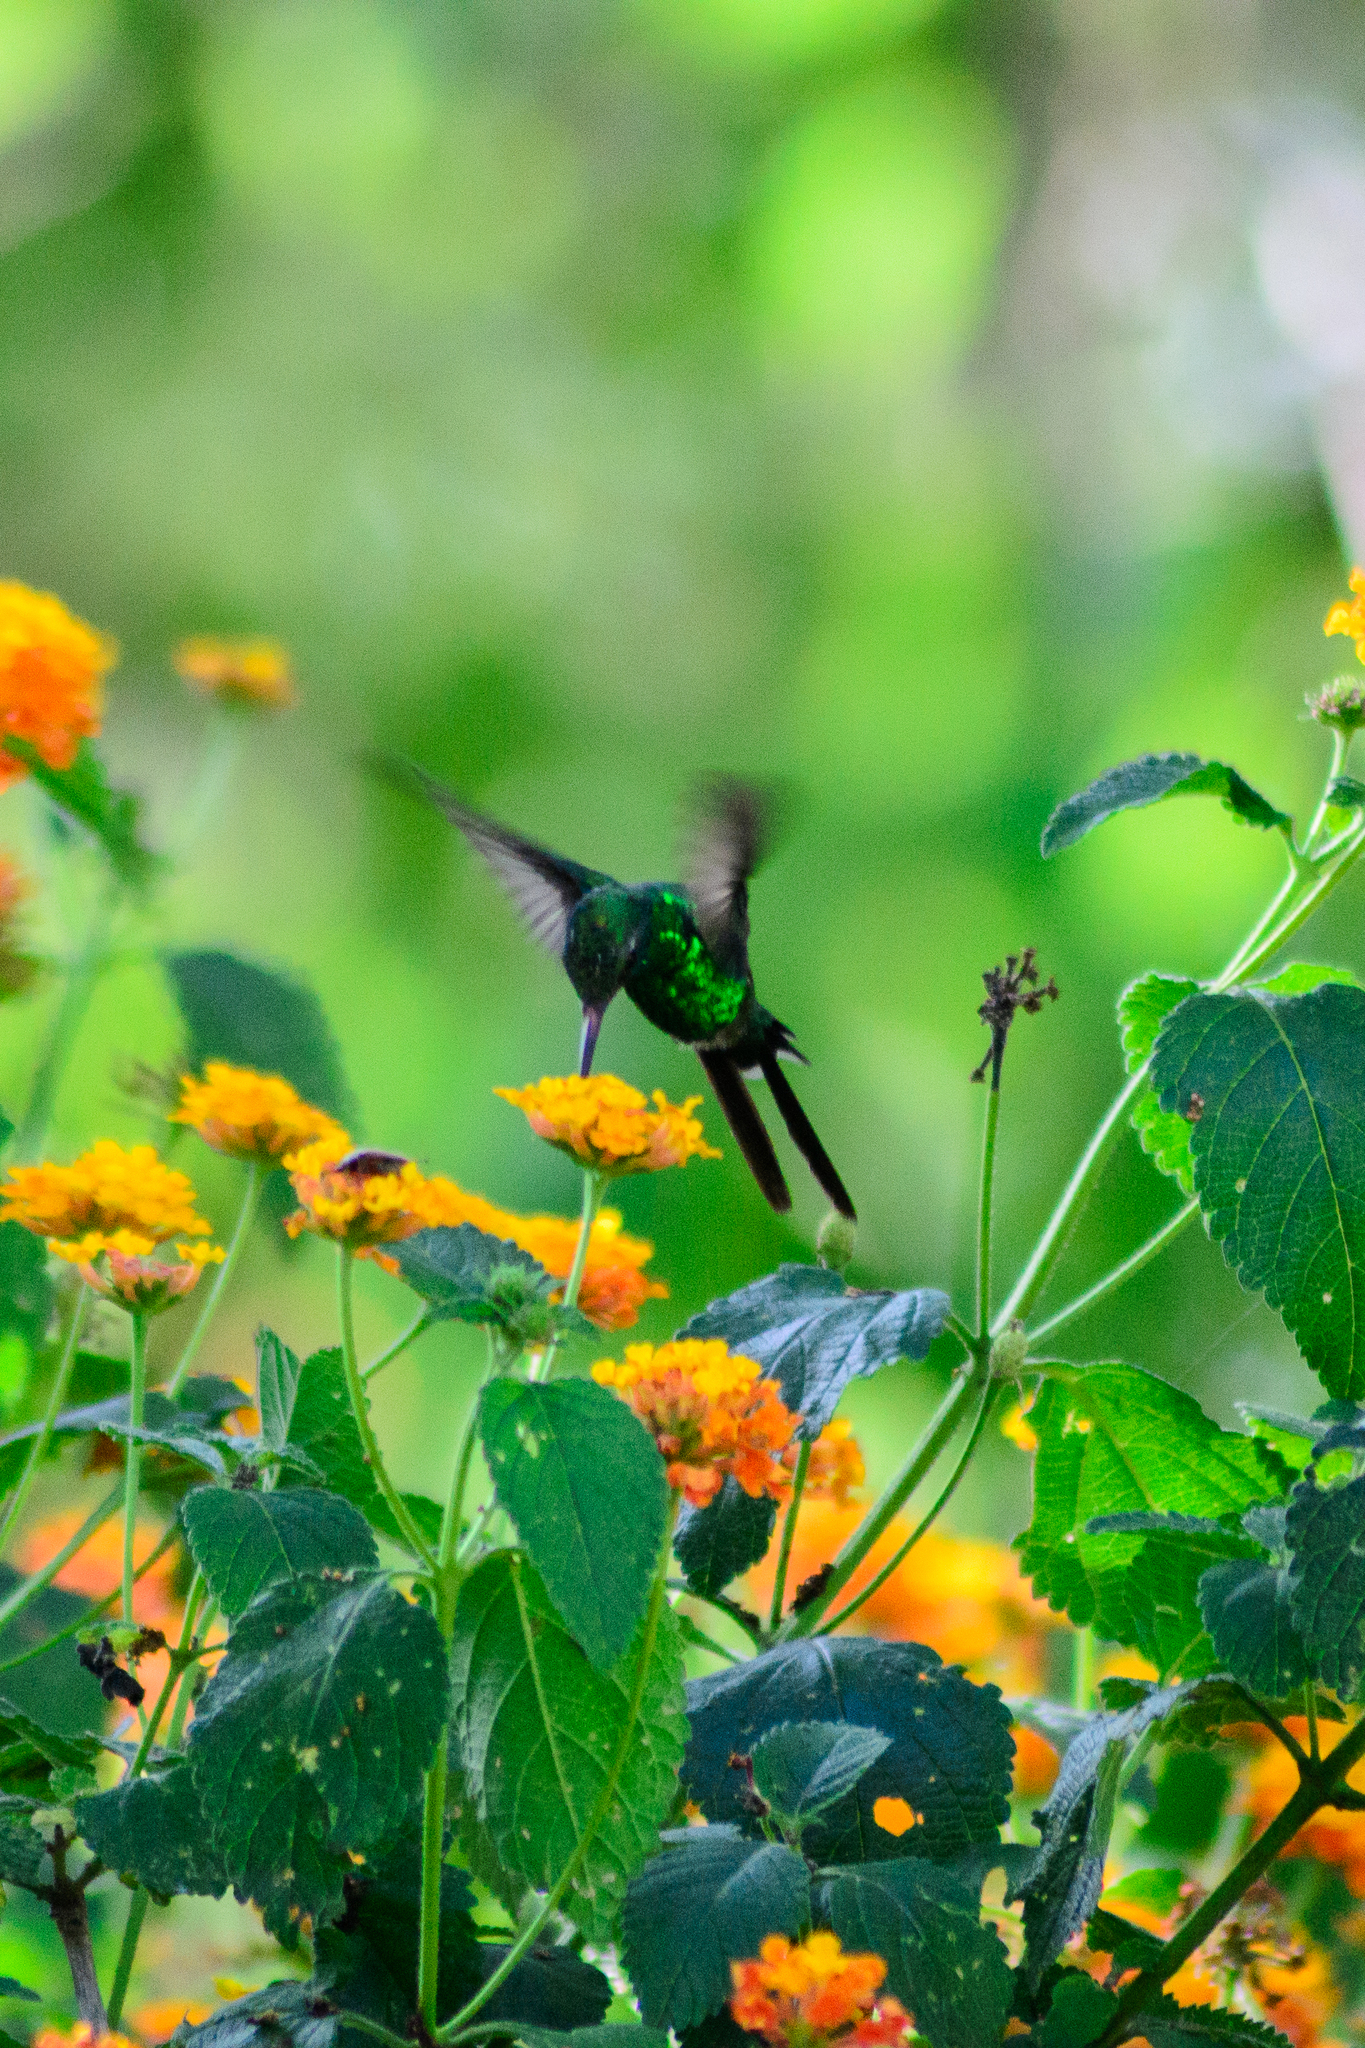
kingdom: Animalia
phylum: Chordata
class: Aves
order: Apodiformes
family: Trochilidae
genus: Cynanthus
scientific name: Cynanthus auriceps
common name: Golden-crowned emerald
